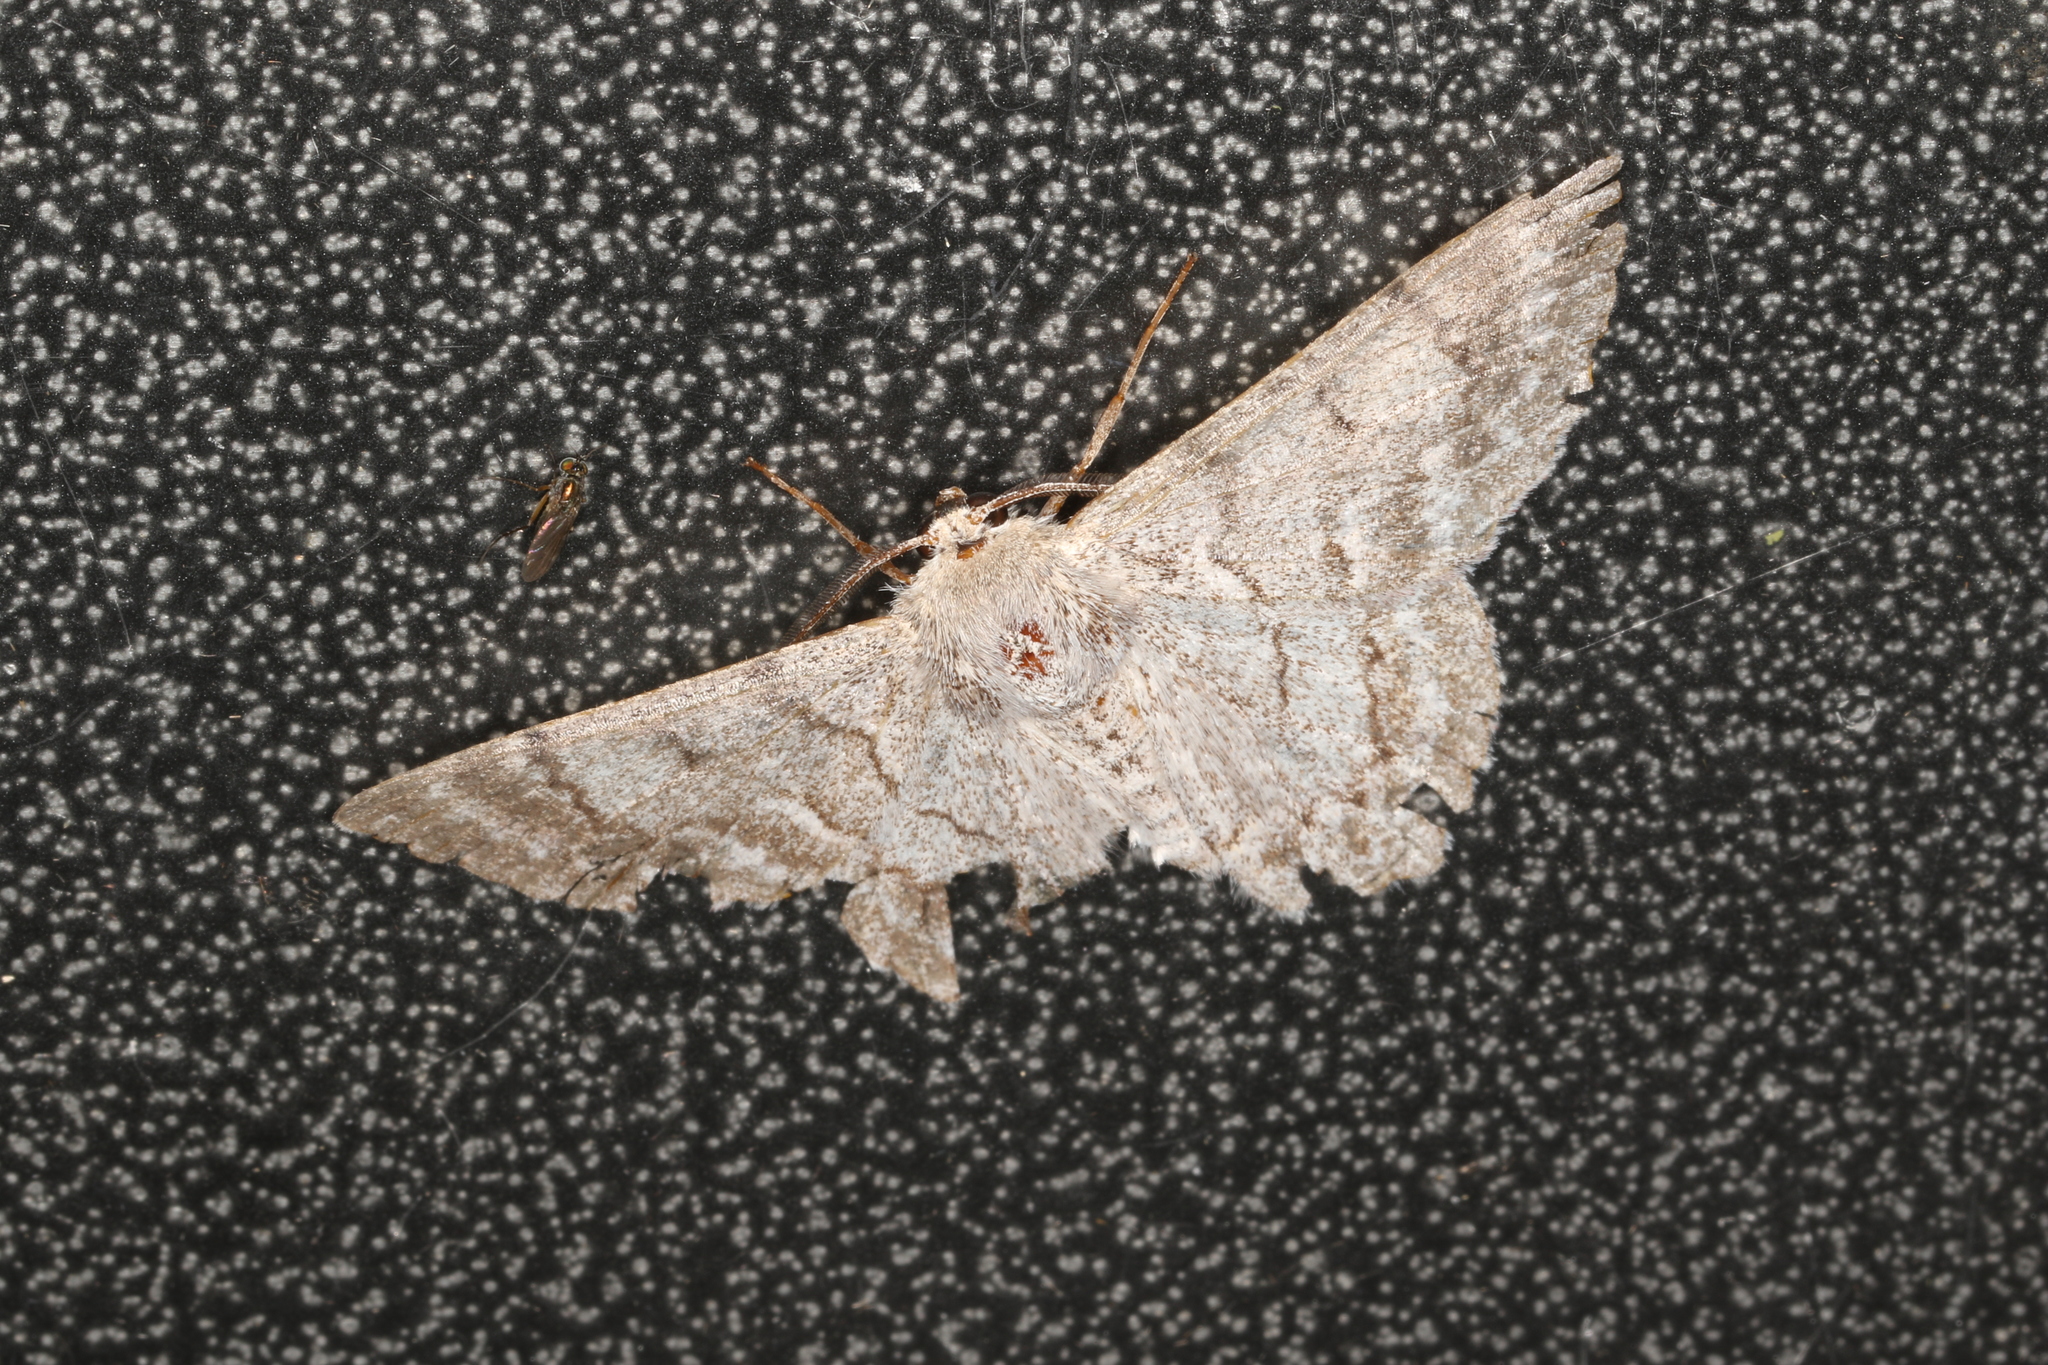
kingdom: Animalia
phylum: Arthropoda
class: Insecta
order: Lepidoptera
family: Geometridae
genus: Crypsiphona
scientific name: Crypsiphona ocultaria
